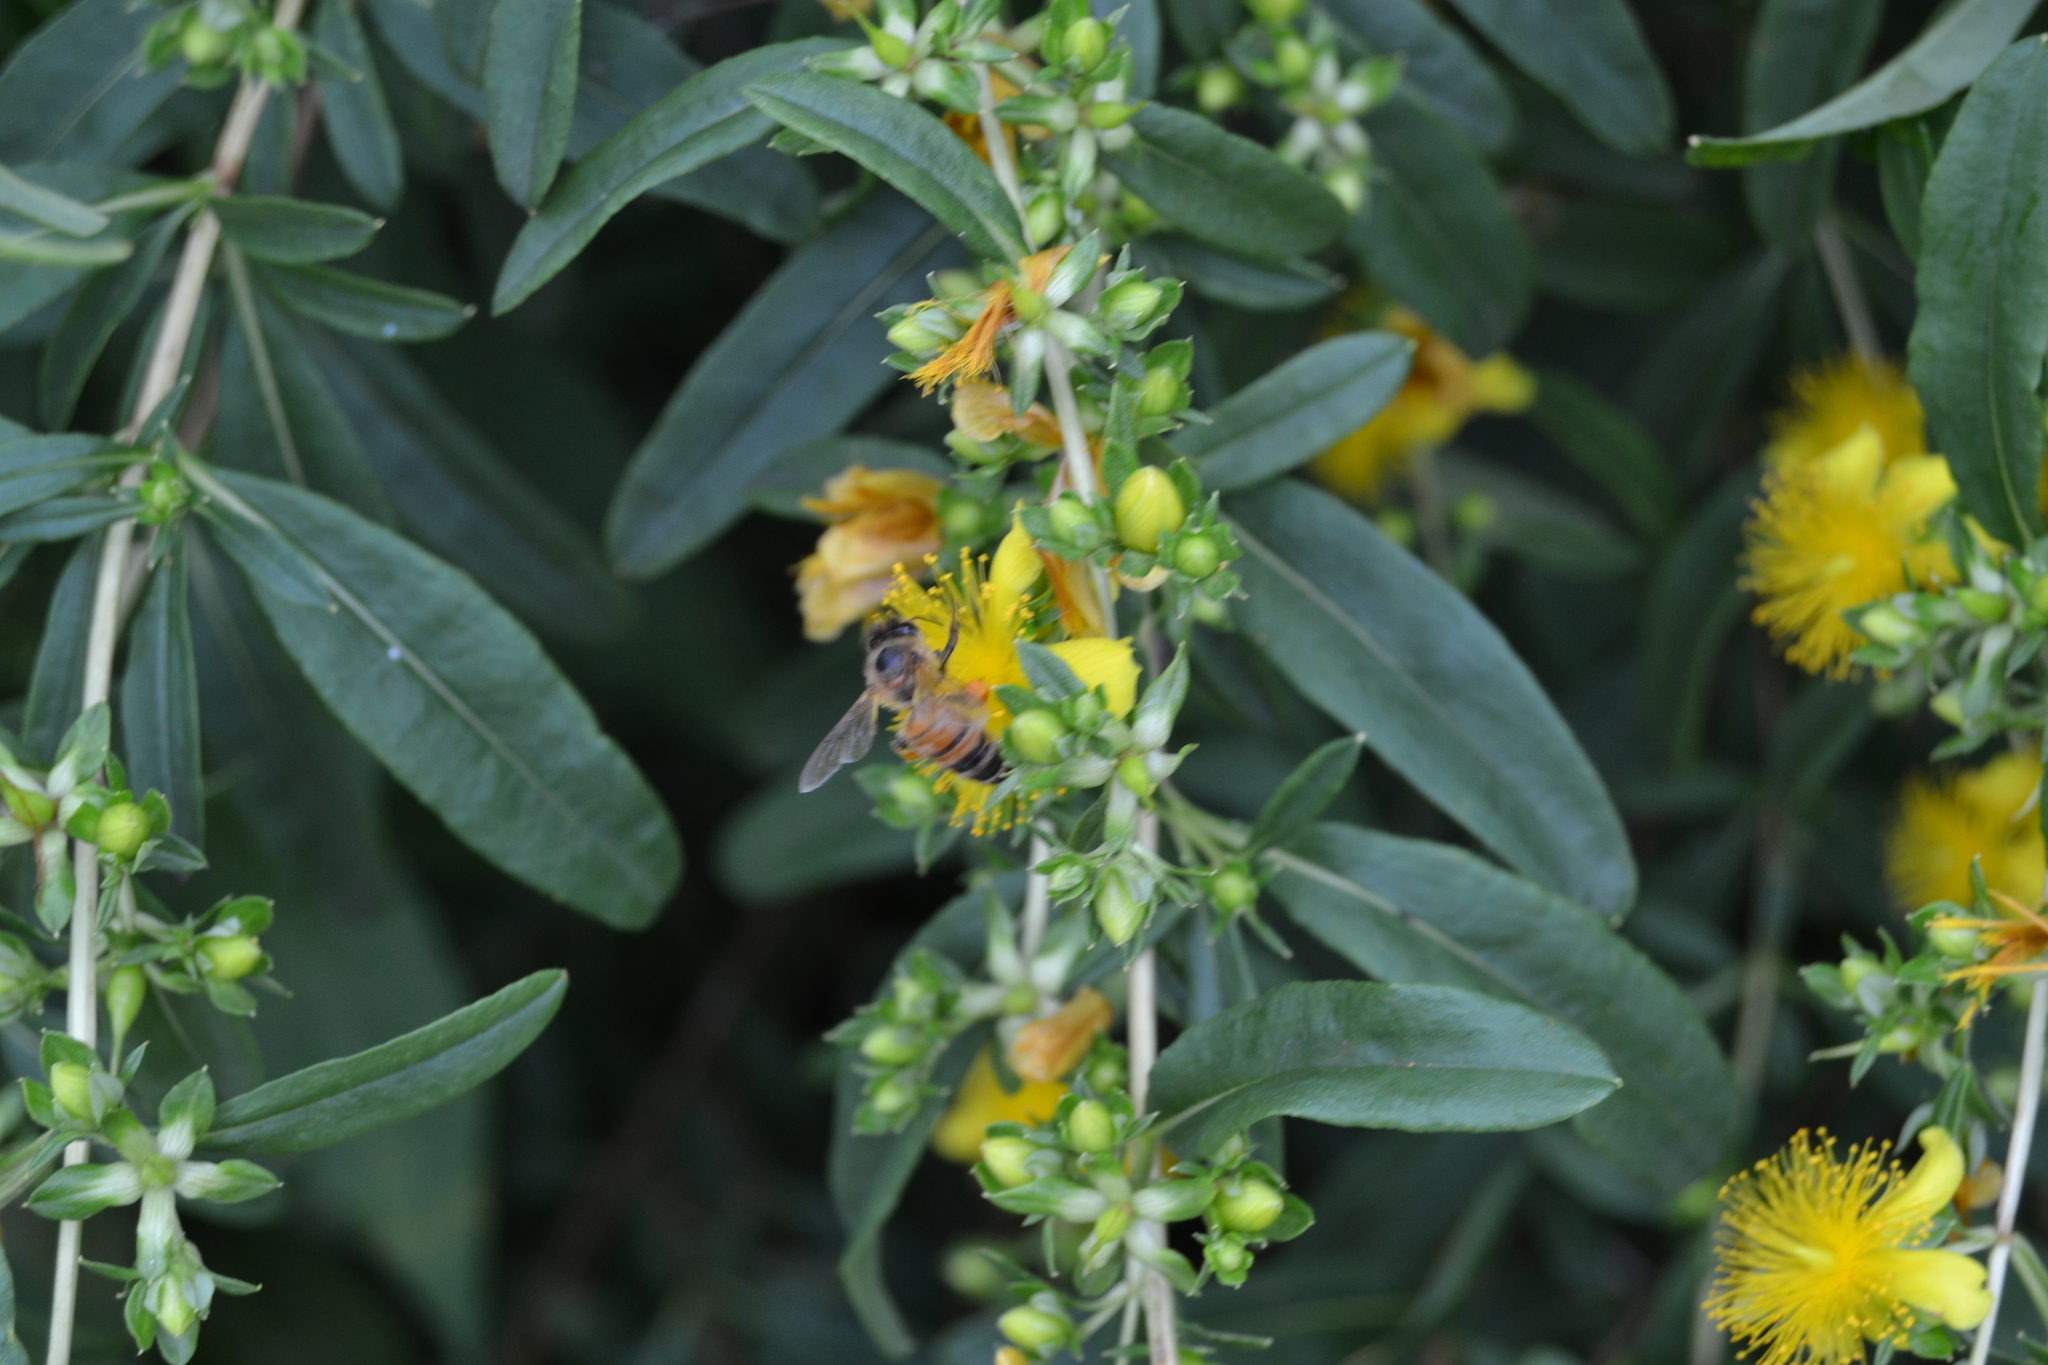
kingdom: Animalia
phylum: Arthropoda
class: Insecta
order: Hymenoptera
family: Apidae
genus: Apis
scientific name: Apis mellifera
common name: Honey bee
